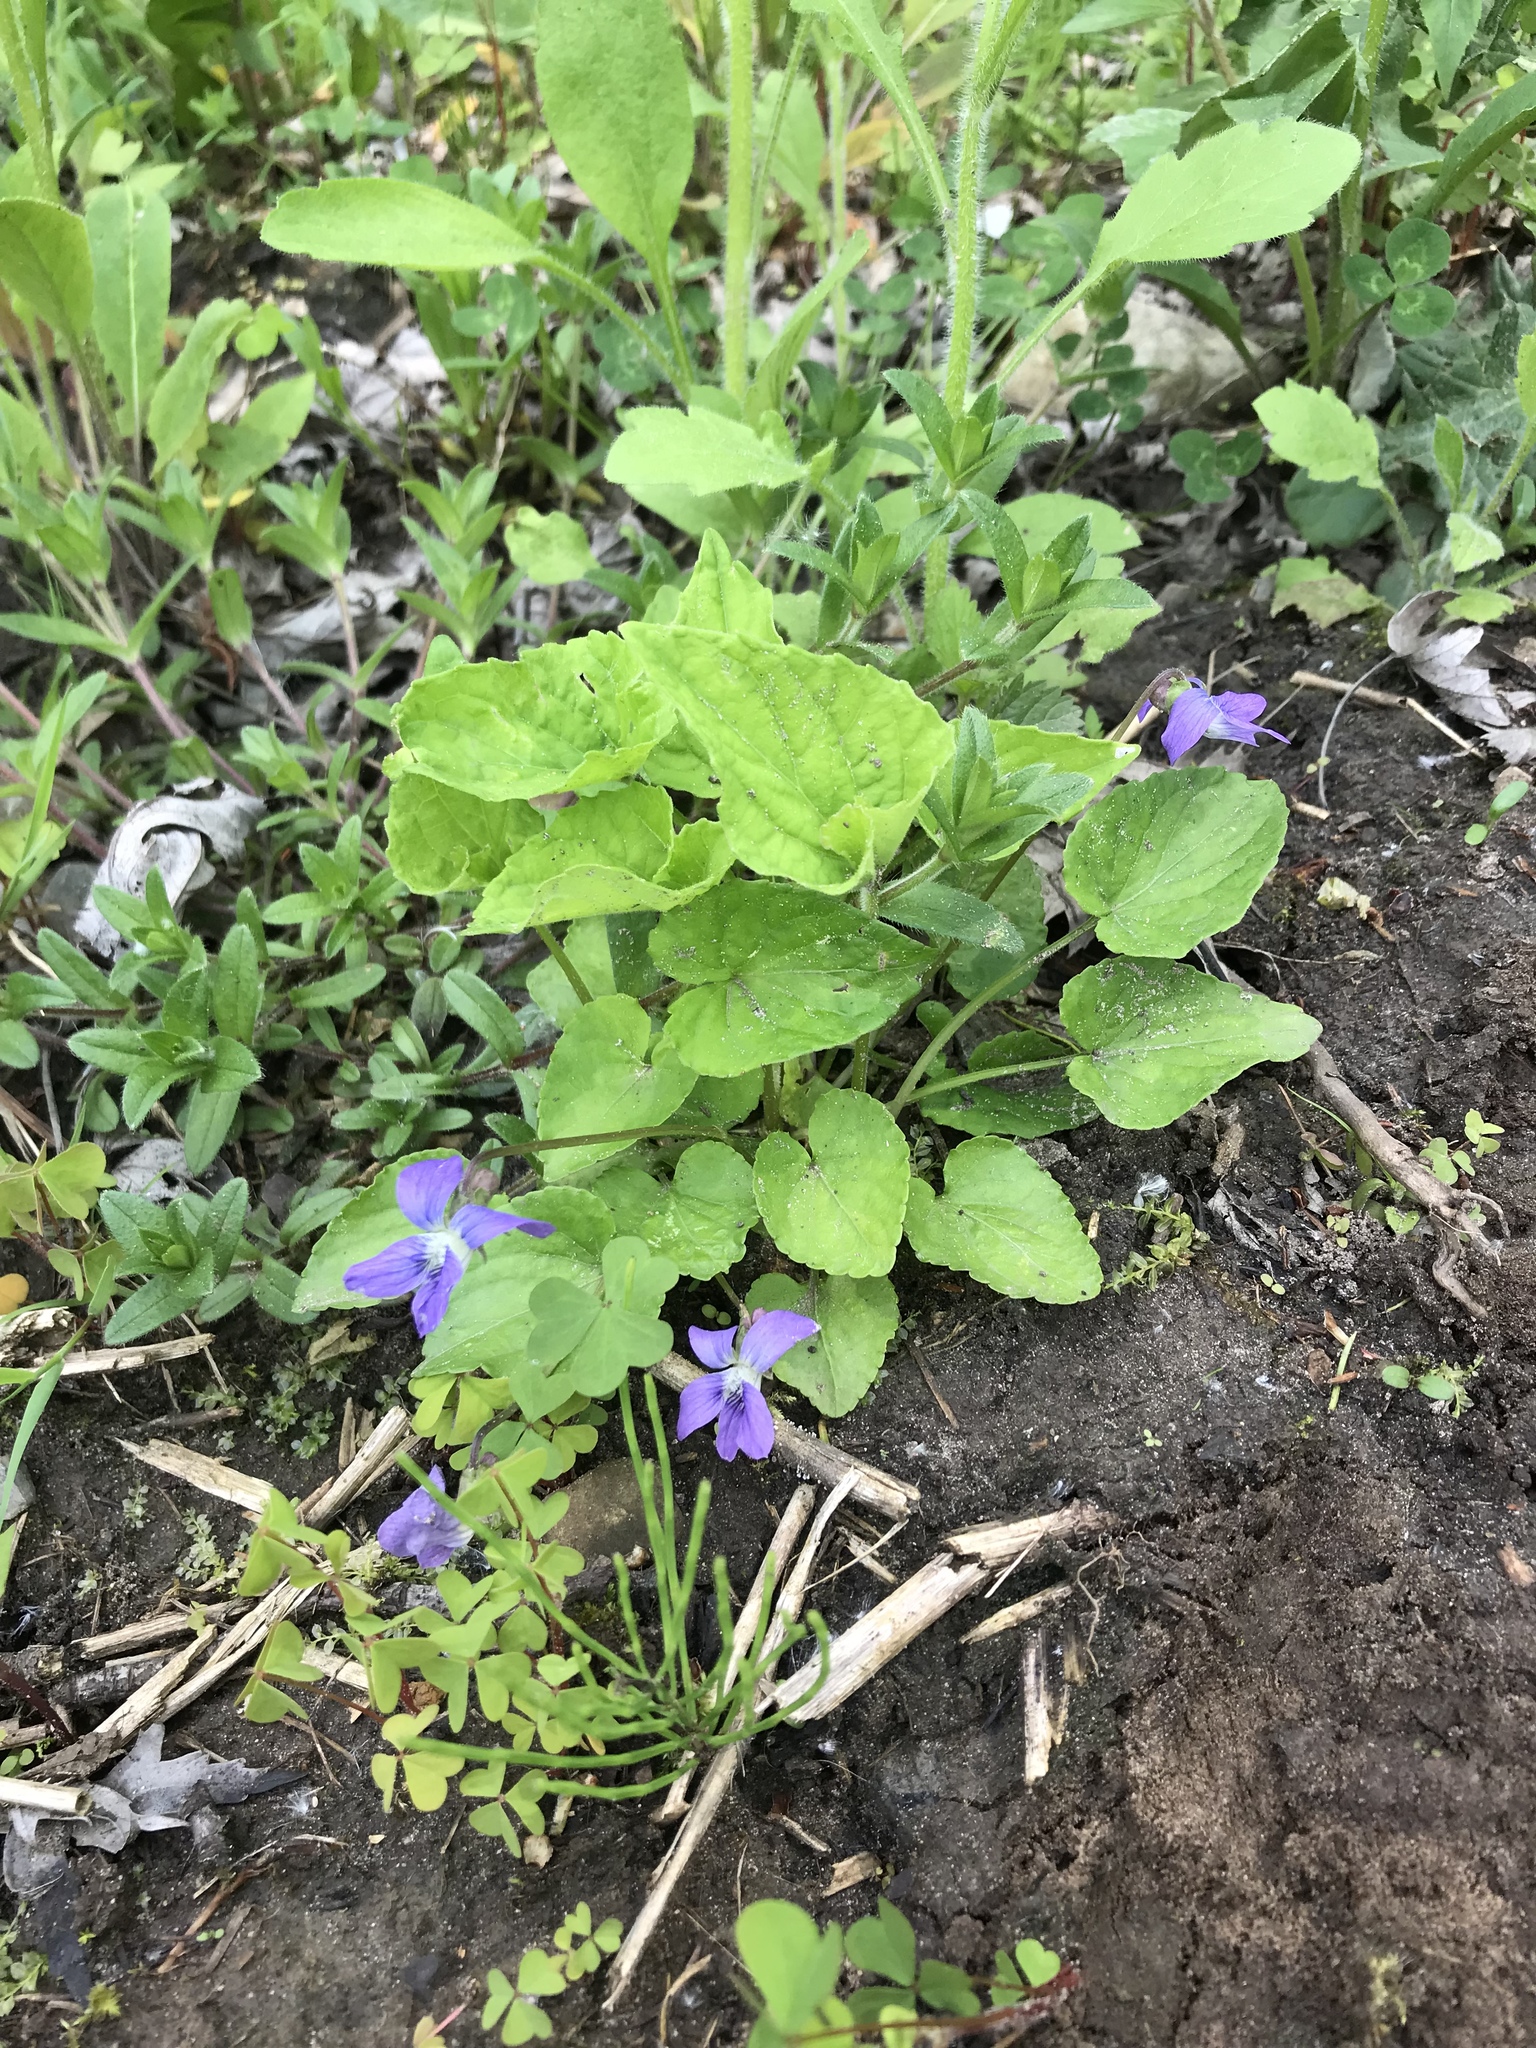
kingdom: Plantae
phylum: Tracheophyta
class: Magnoliopsida
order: Malpighiales
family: Violaceae
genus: Viola
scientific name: Viola sororia
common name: Dooryard violet
